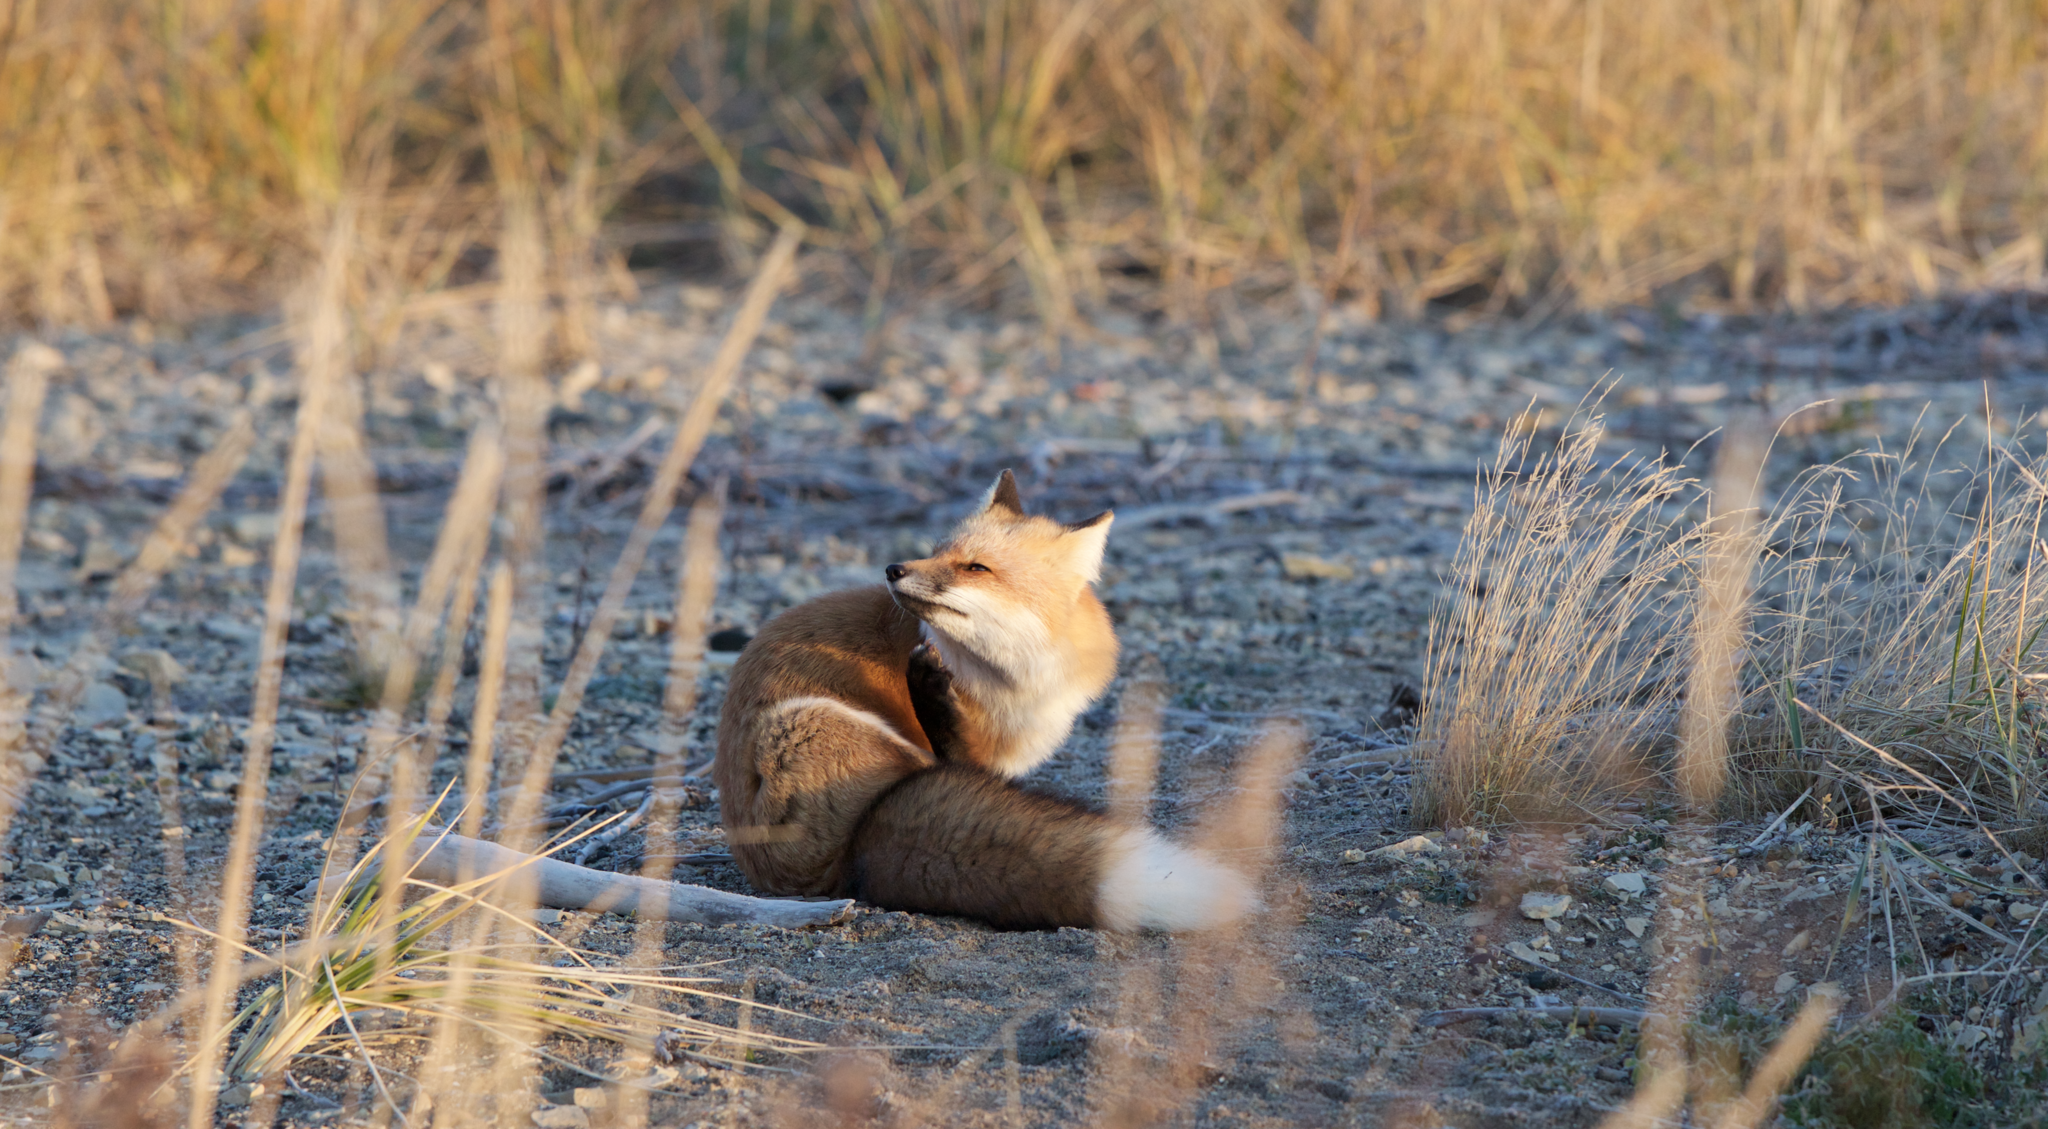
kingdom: Animalia
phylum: Chordata
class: Mammalia
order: Carnivora
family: Canidae
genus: Vulpes
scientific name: Vulpes vulpes
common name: Red fox
